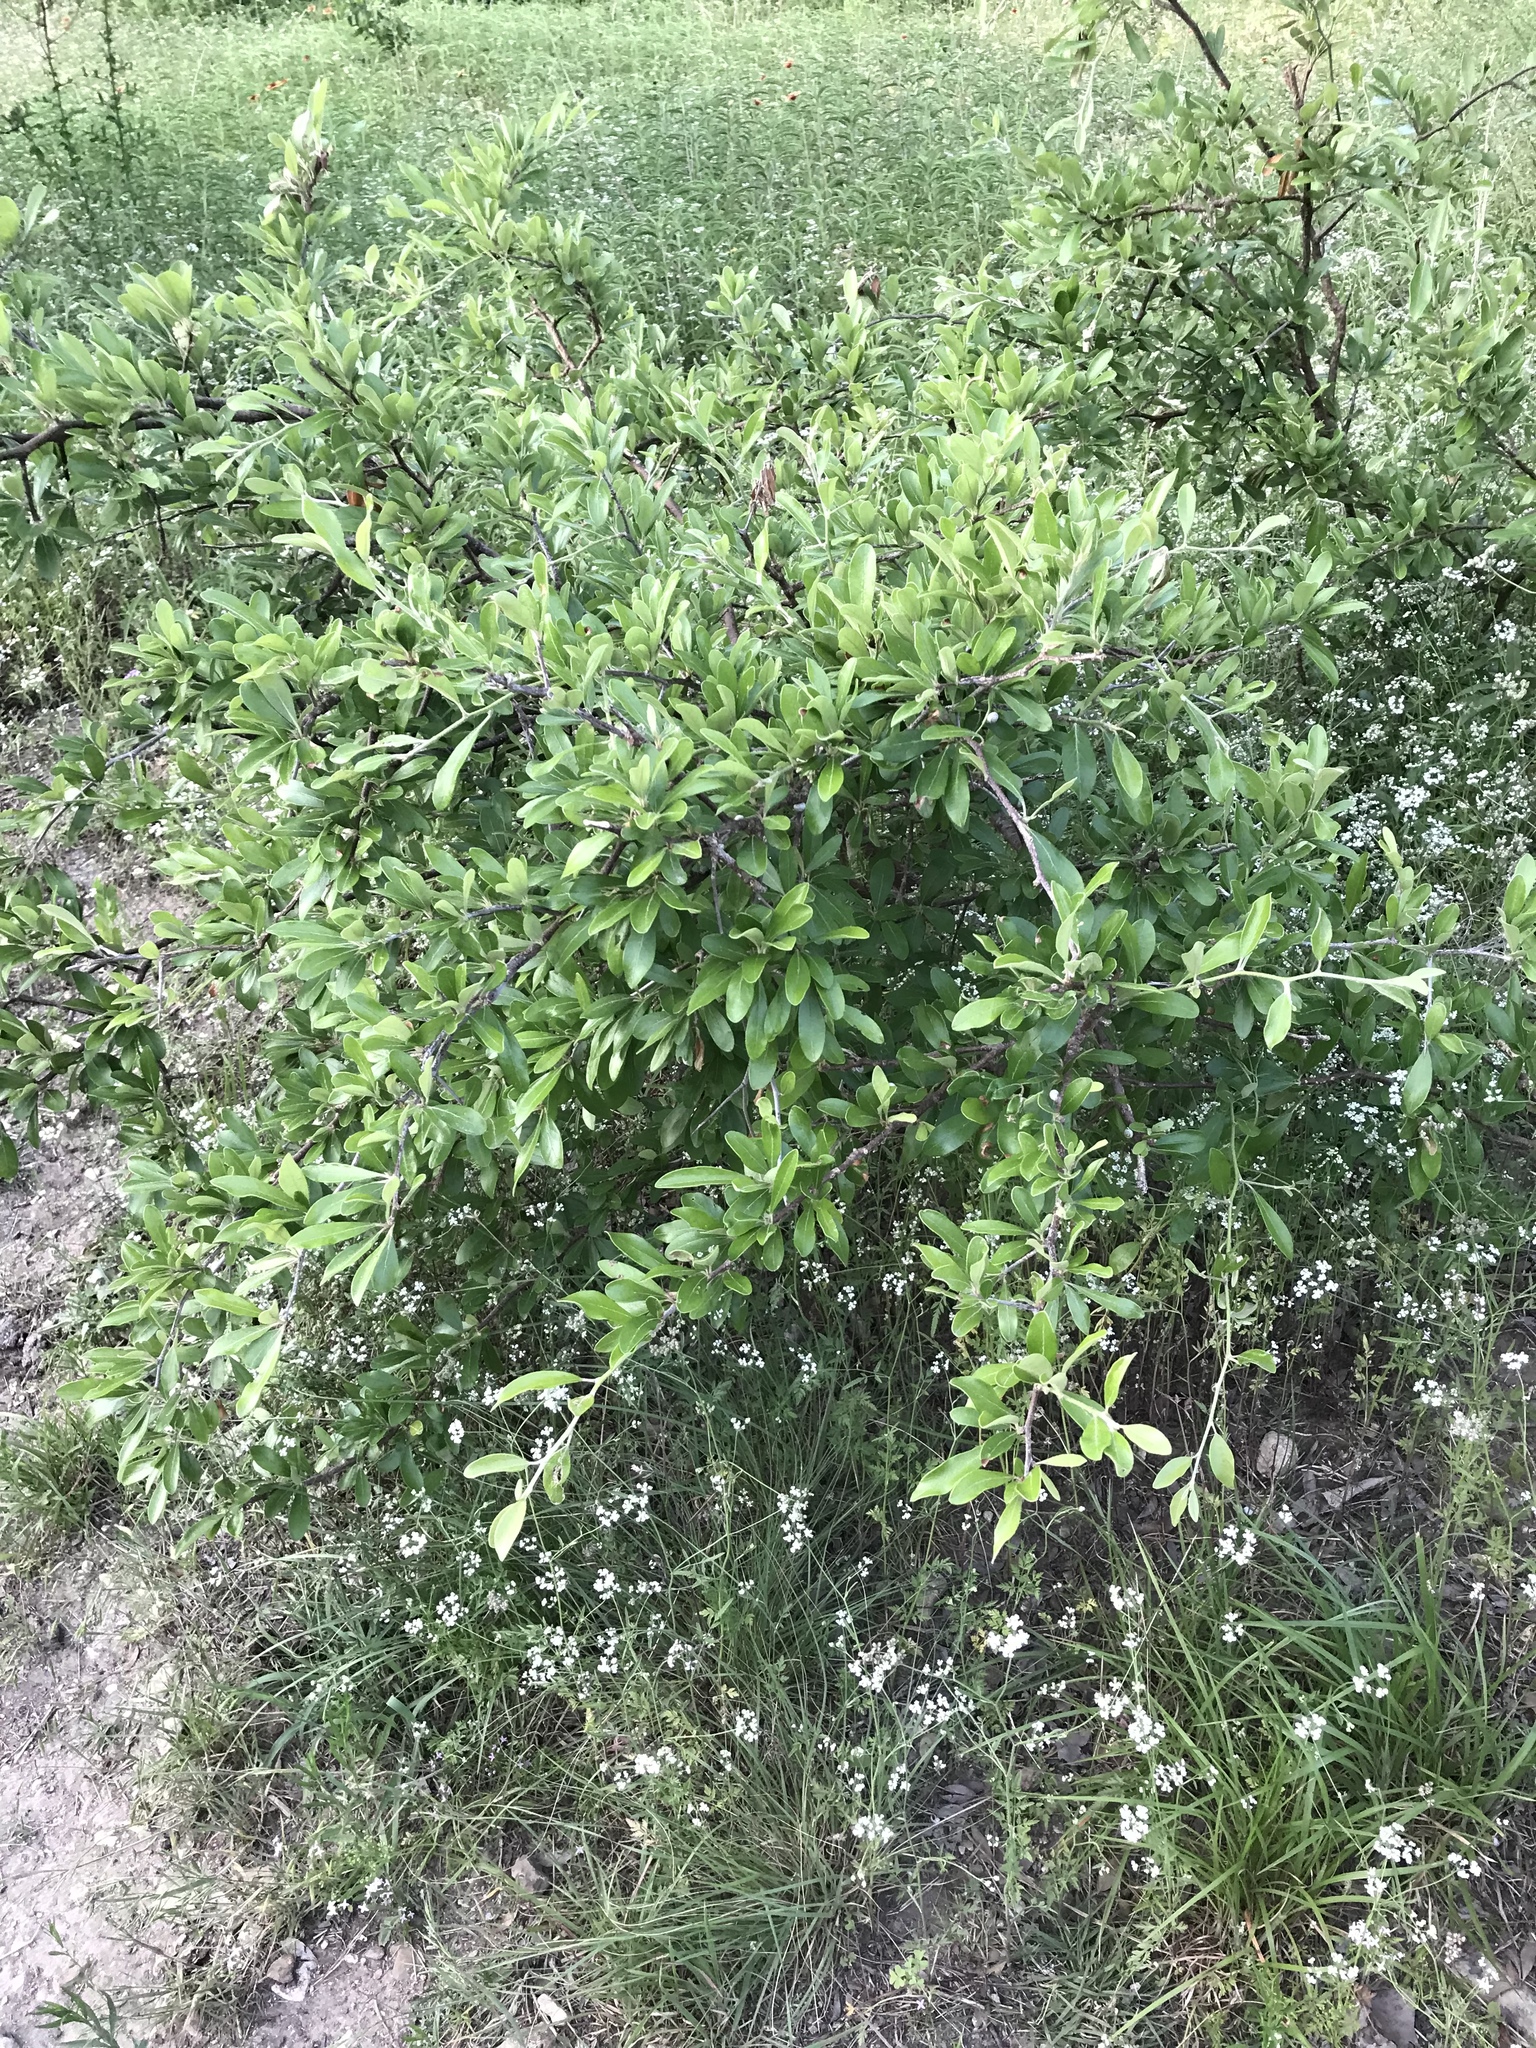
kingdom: Plantae
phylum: Tracheophyta
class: Magnoliopsida
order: Ericales
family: Sapotaceae
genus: Sideroxylon
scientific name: Sideroxylon lanuginosum
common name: Chittamwood
